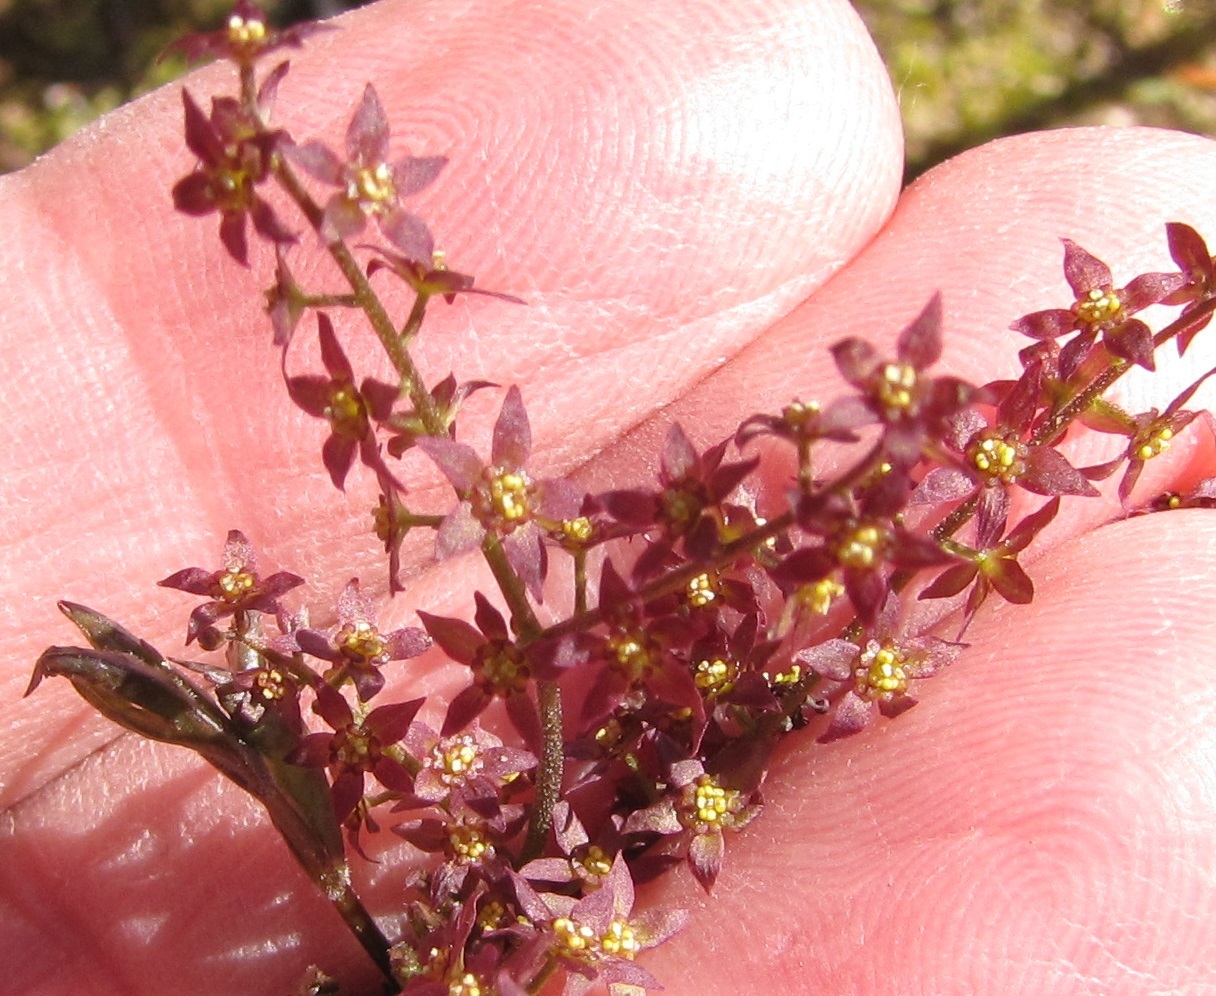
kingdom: Plantae
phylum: Tracheophyta
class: Magnoliopsida
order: Ranunculales
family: Ranunculaceae
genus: Xanthorhiza
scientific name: Xanthorhiza simplicissima
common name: Yellowroot
